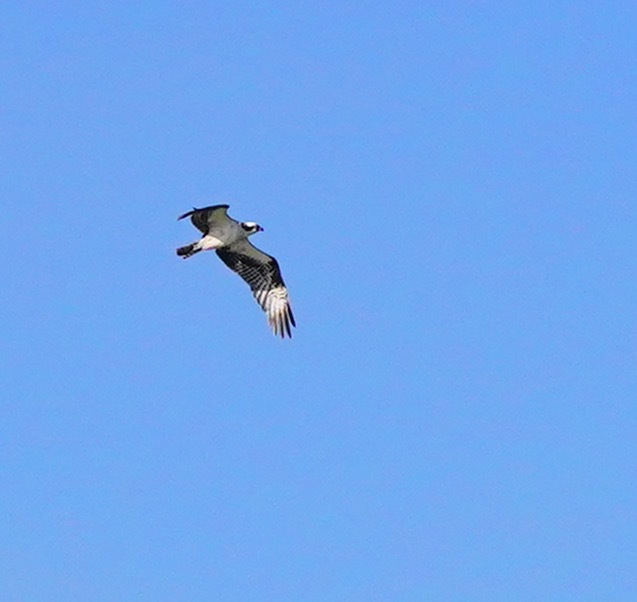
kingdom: Animalia
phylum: Chordata
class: Aves
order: Accipitriformes
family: Pandionidae
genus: Pandion
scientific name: Pandion haliaetus
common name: Osprey
